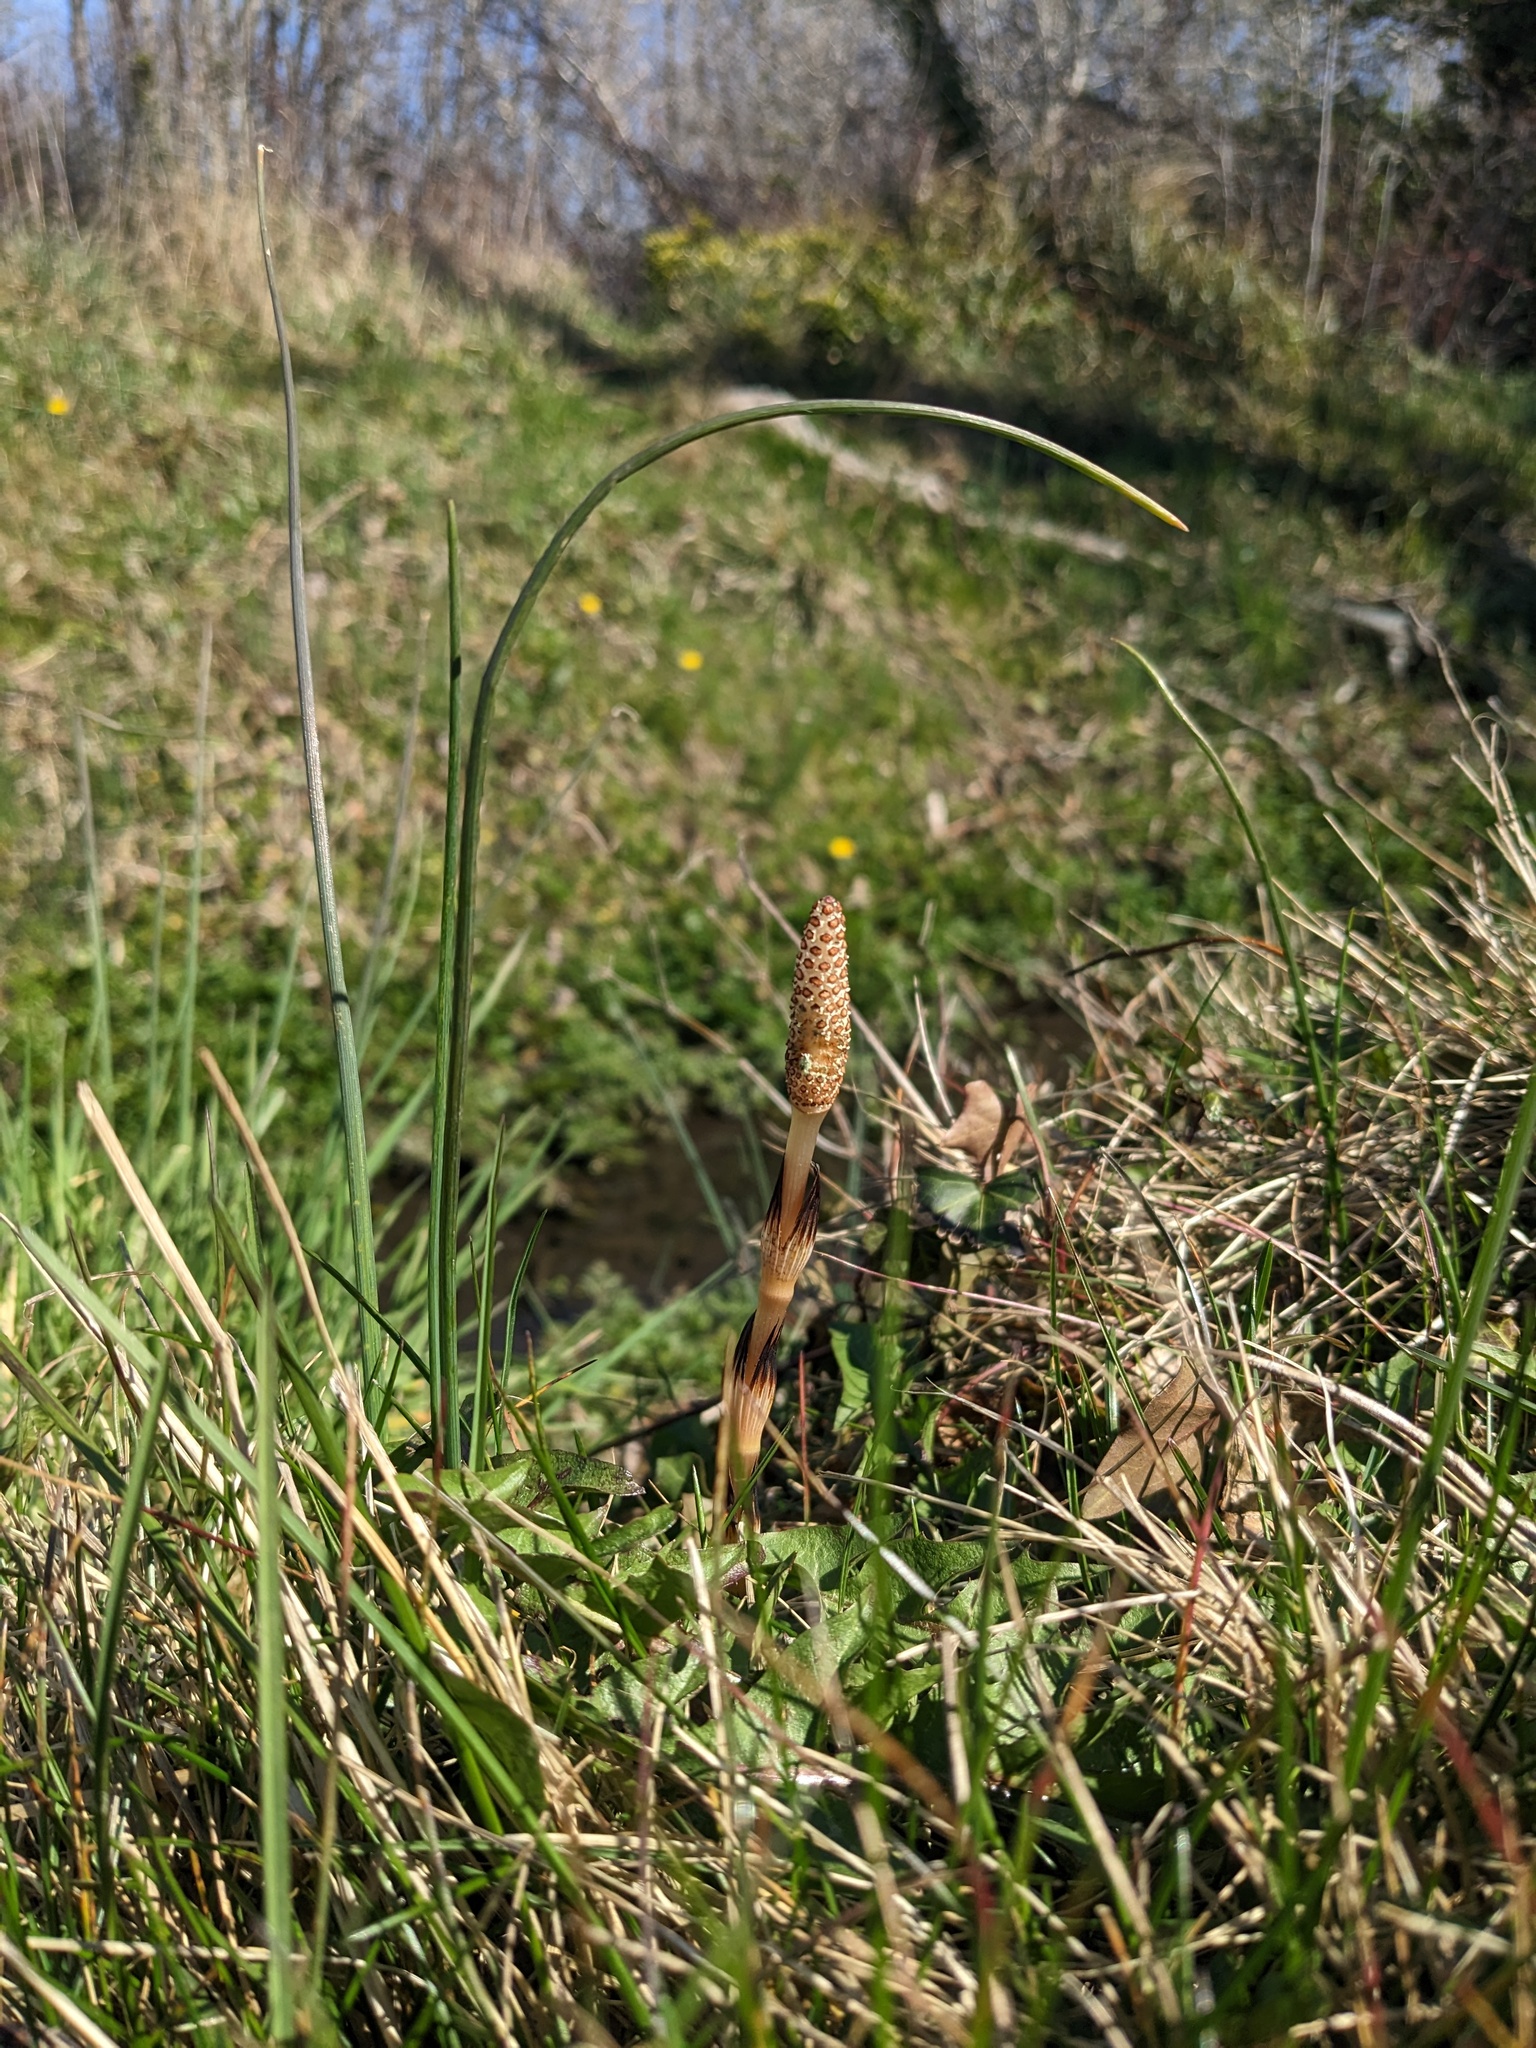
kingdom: Plantae
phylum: Tracheophyta
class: Polypodiopsida
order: Equisetales
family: Equisetaceae
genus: Equisetum
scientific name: Equisetum arvense
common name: Field horsetail
